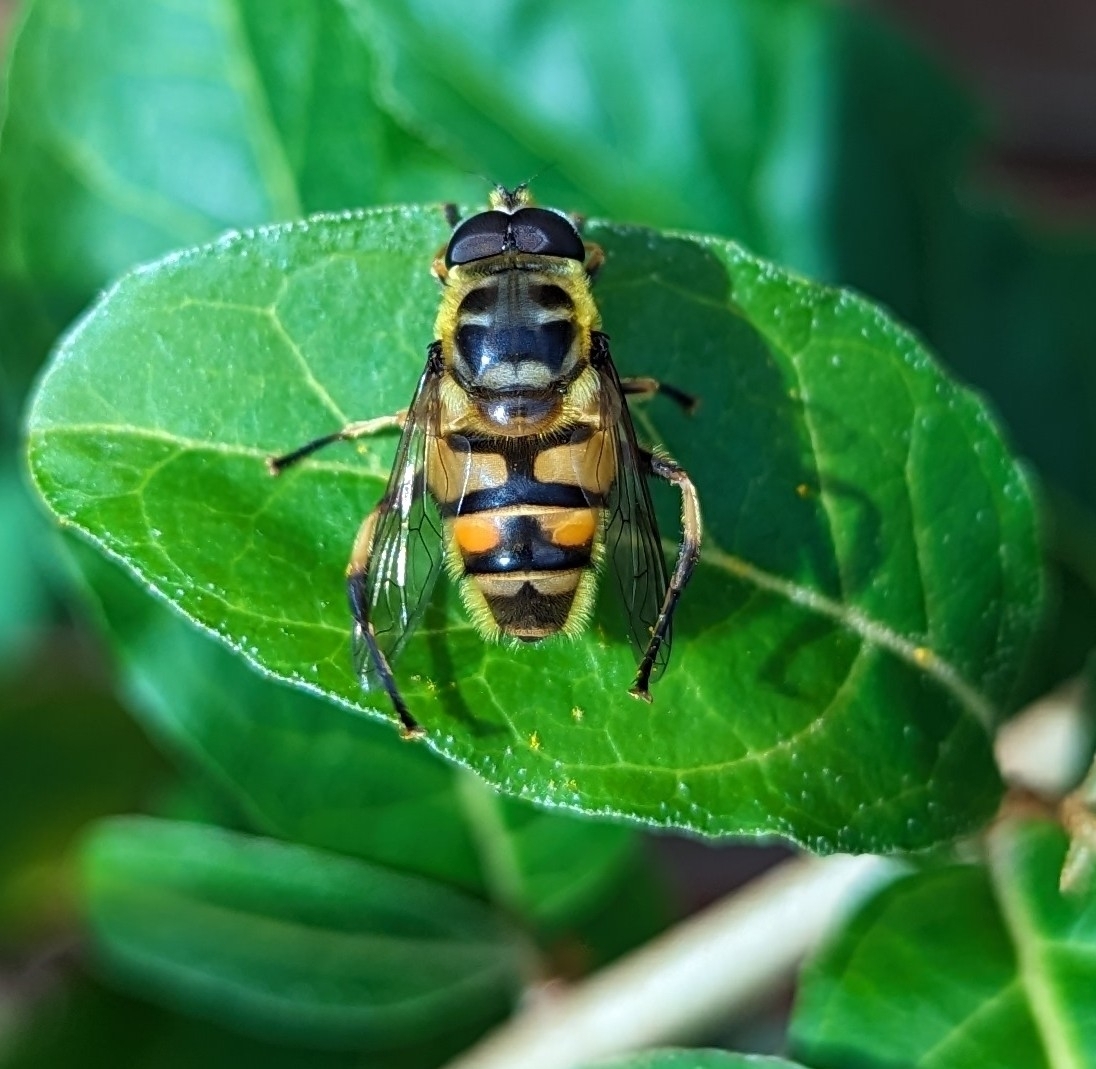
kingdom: Animalia
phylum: Arthropoda
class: Insecta
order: Diptera
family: Syrphidae
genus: Myathropa
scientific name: Myathropa florea
